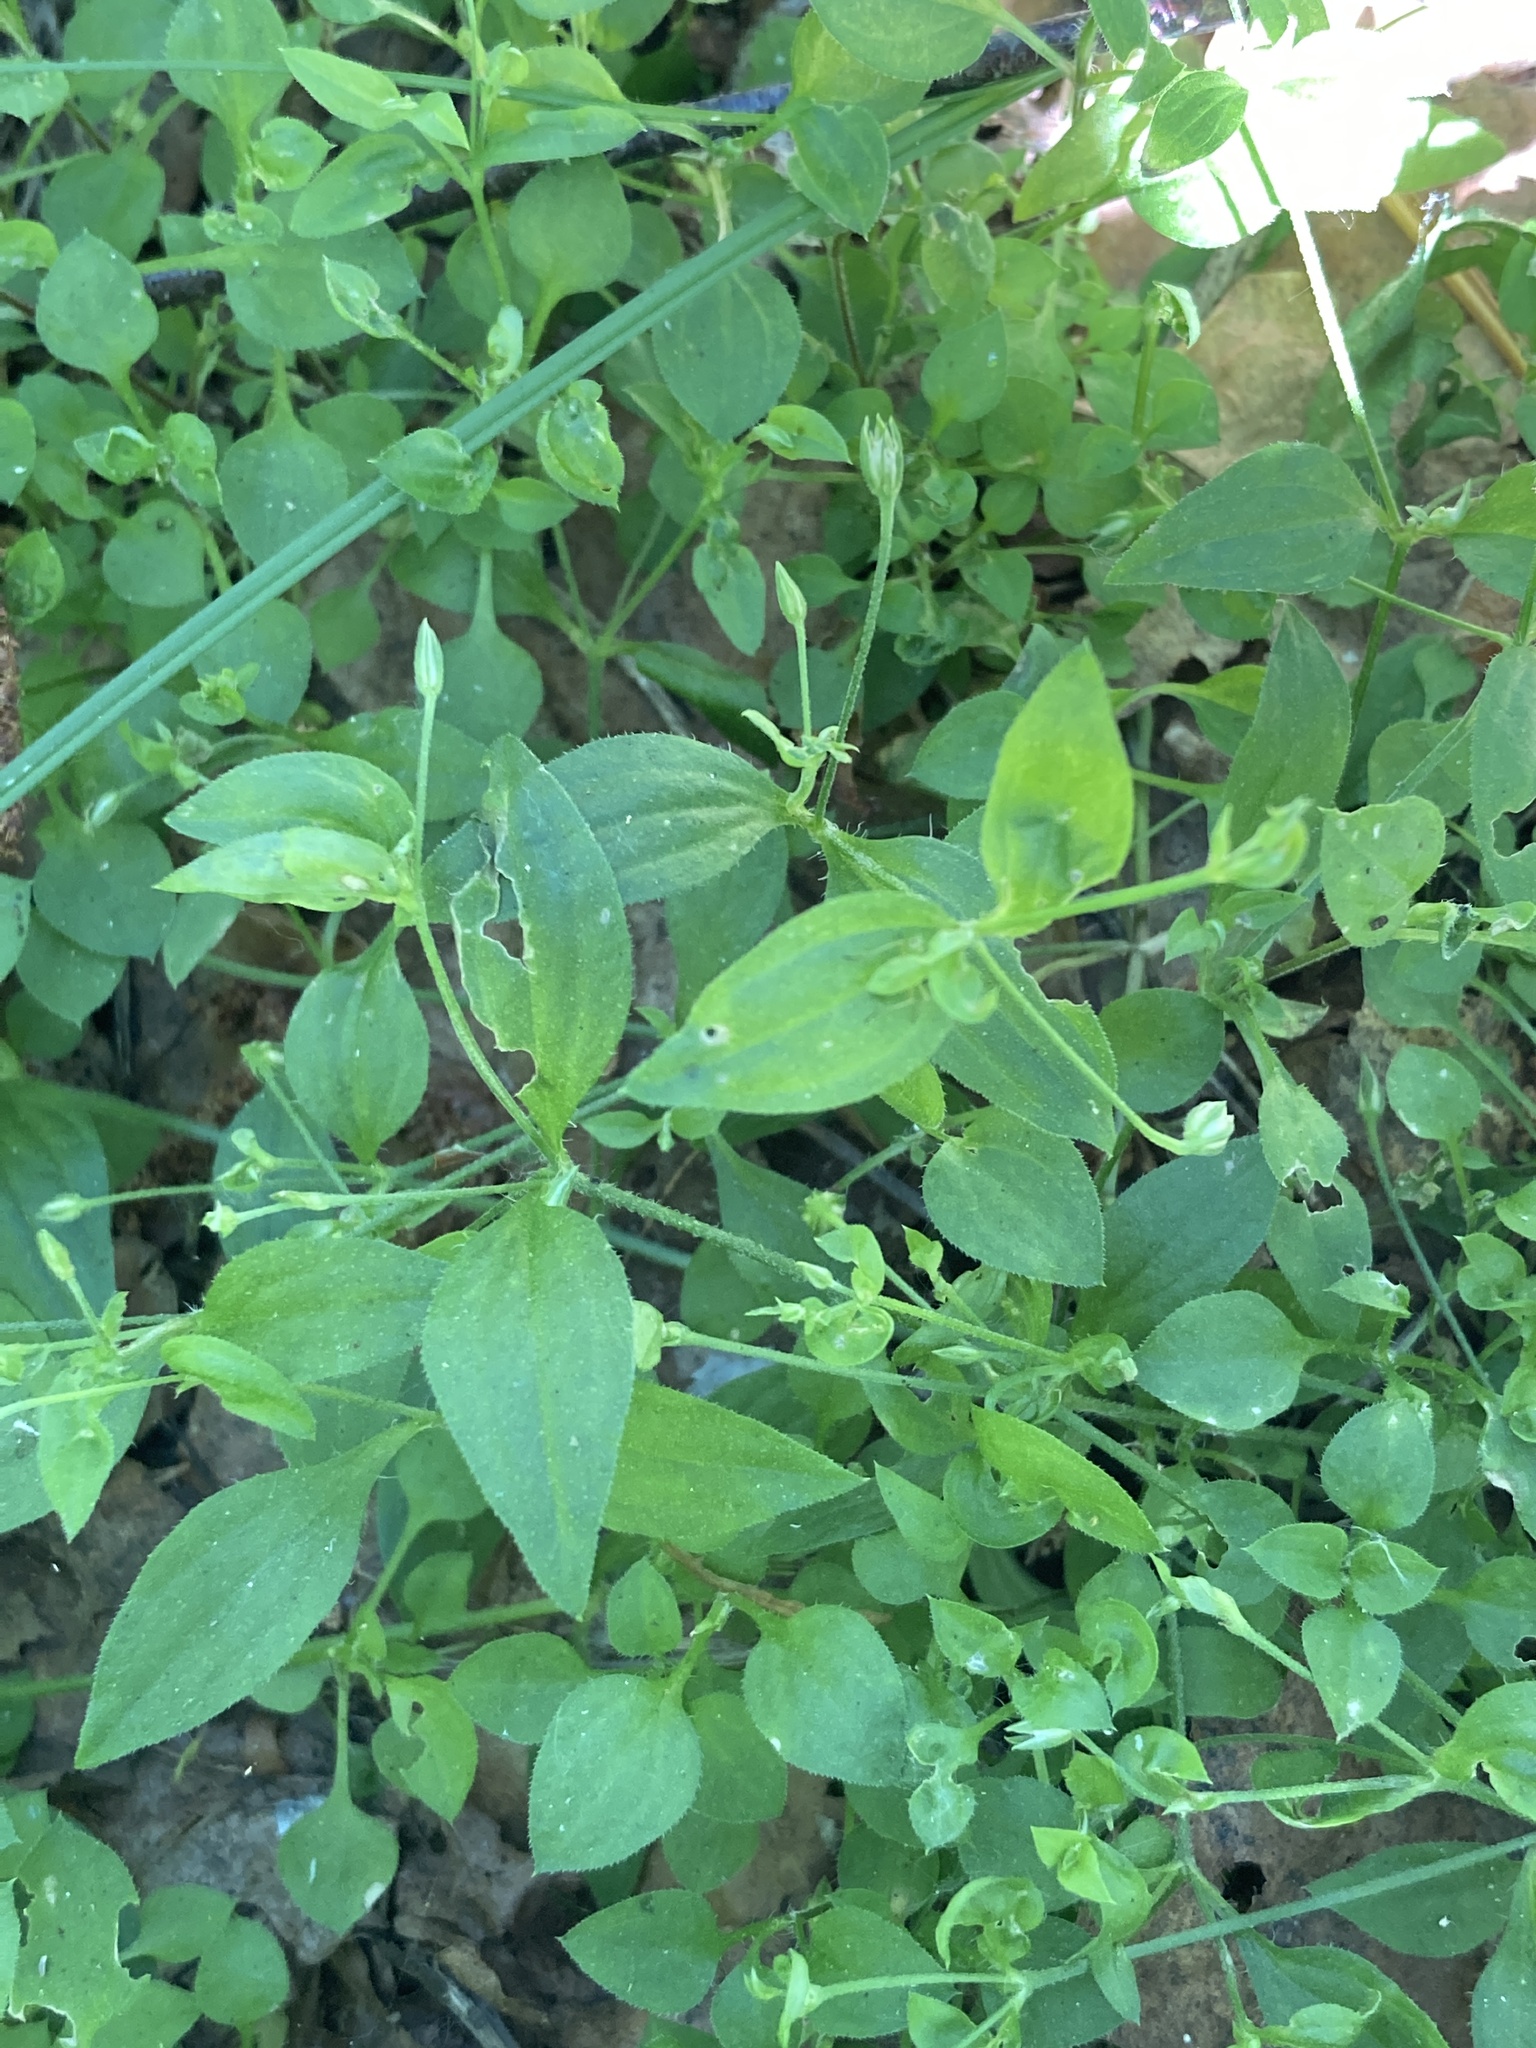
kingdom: Plantae
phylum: Tracheophyta
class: Magnoliopsida
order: Caryophyllales
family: Caryophyllaceae
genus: Moehringia
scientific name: Moehringia trinervia
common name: Three-nerved sandwort
